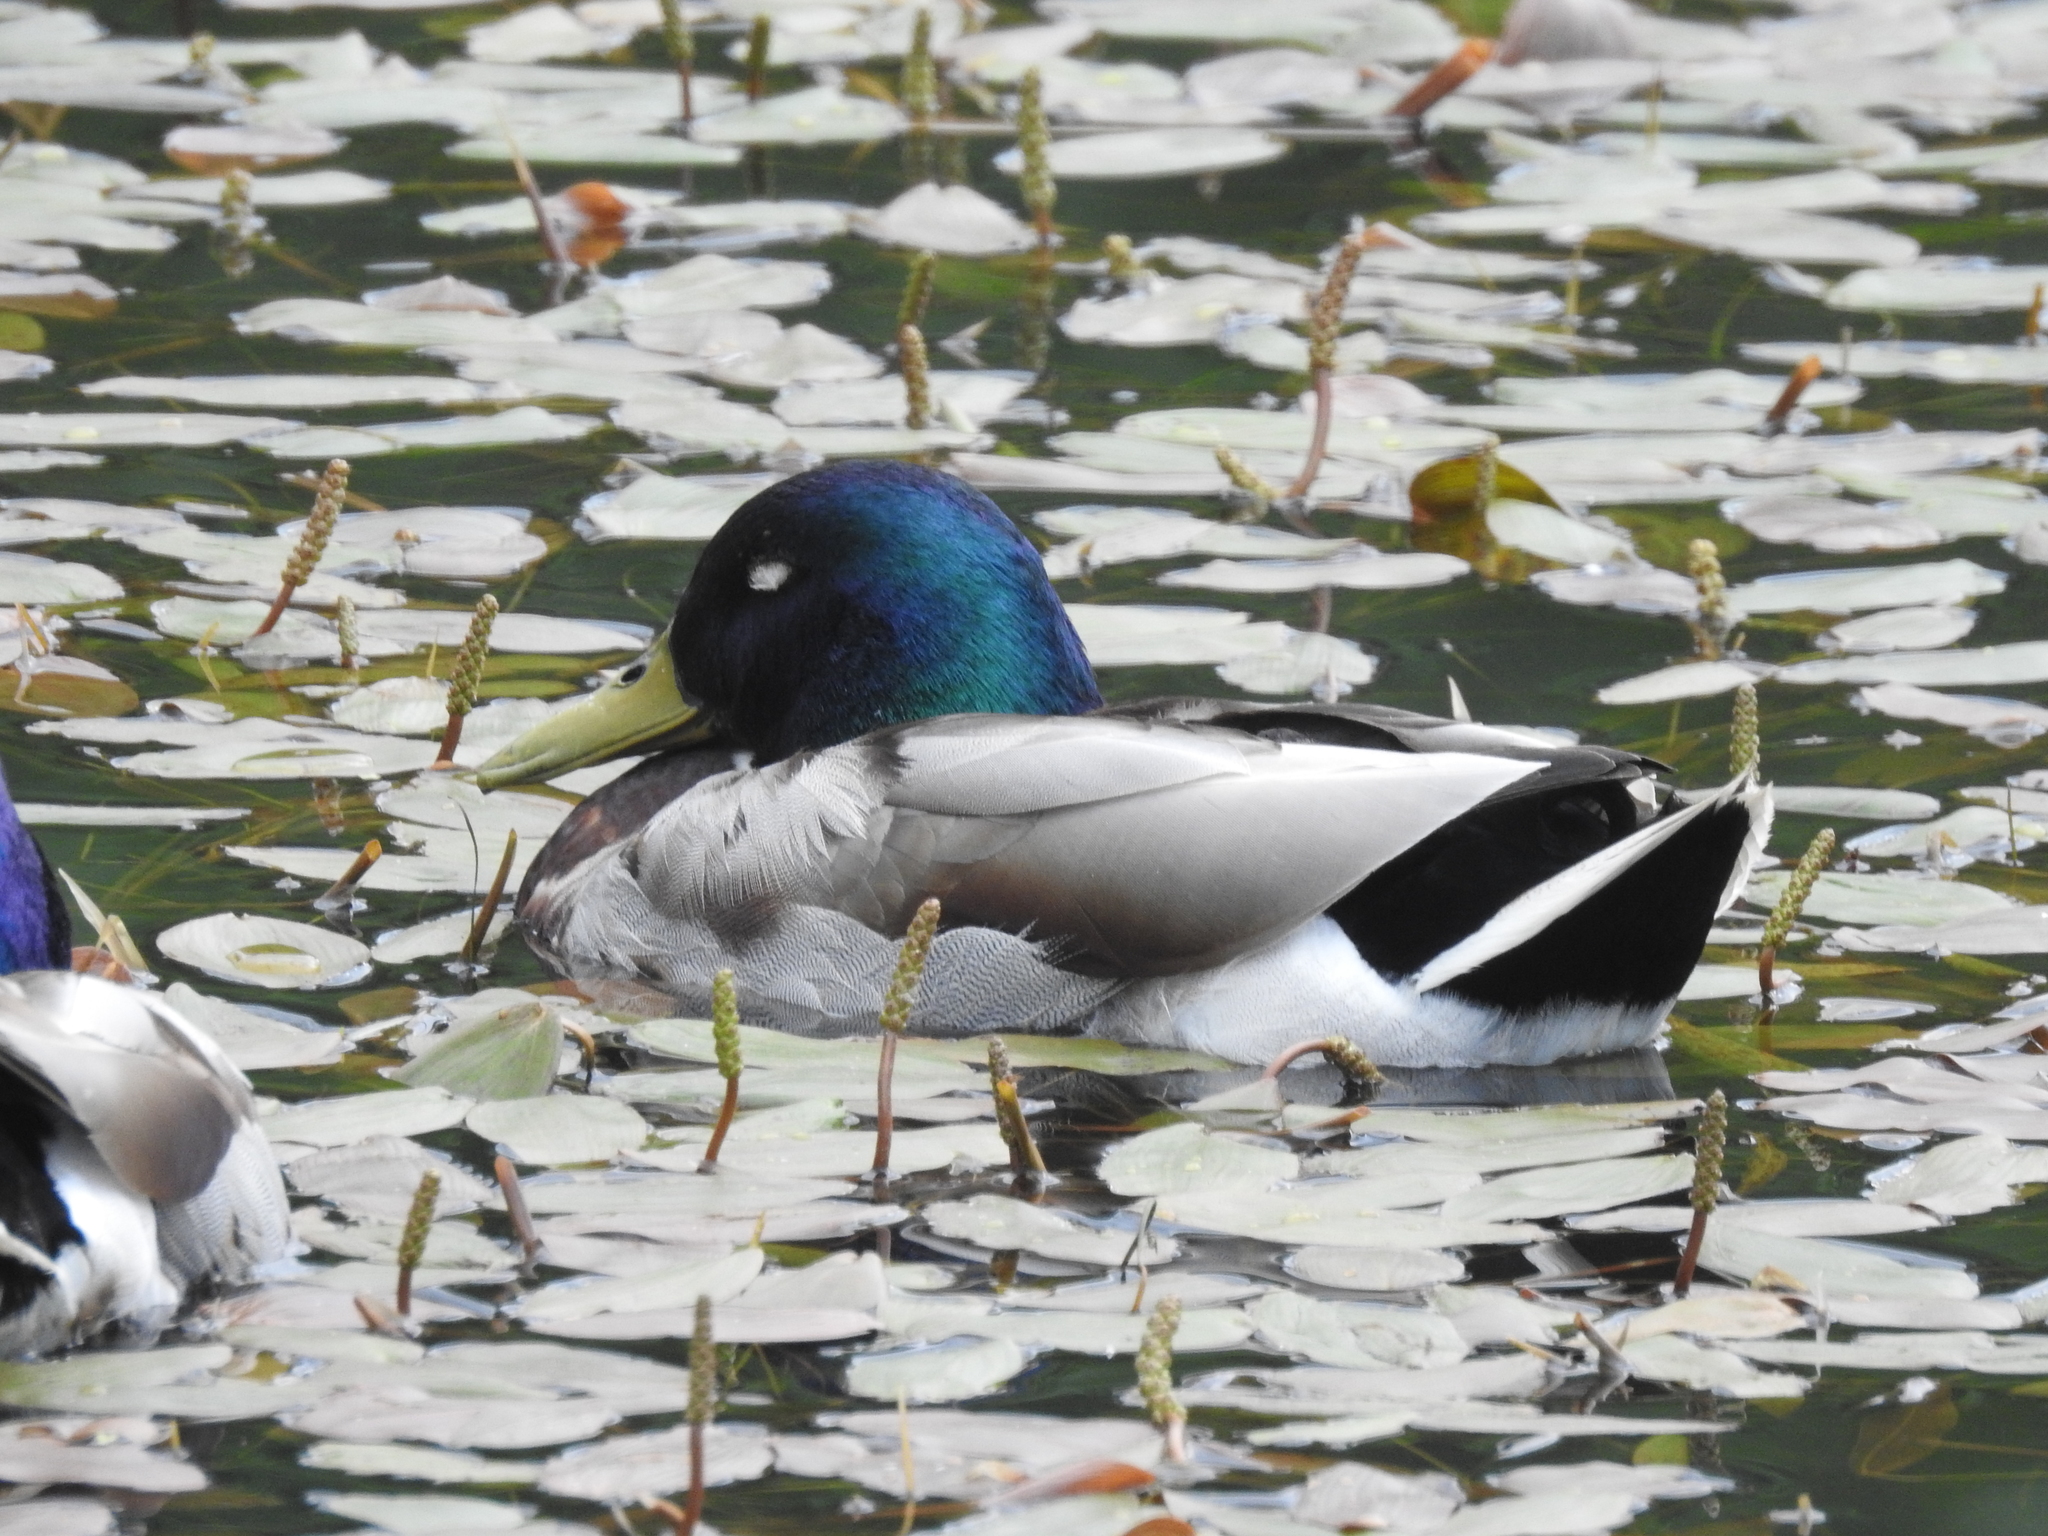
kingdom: Animalia
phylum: Chordata
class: Aves
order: Anseriformes
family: Anatidae
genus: Anas
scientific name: Anas platyrhynchos
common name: Mallard
